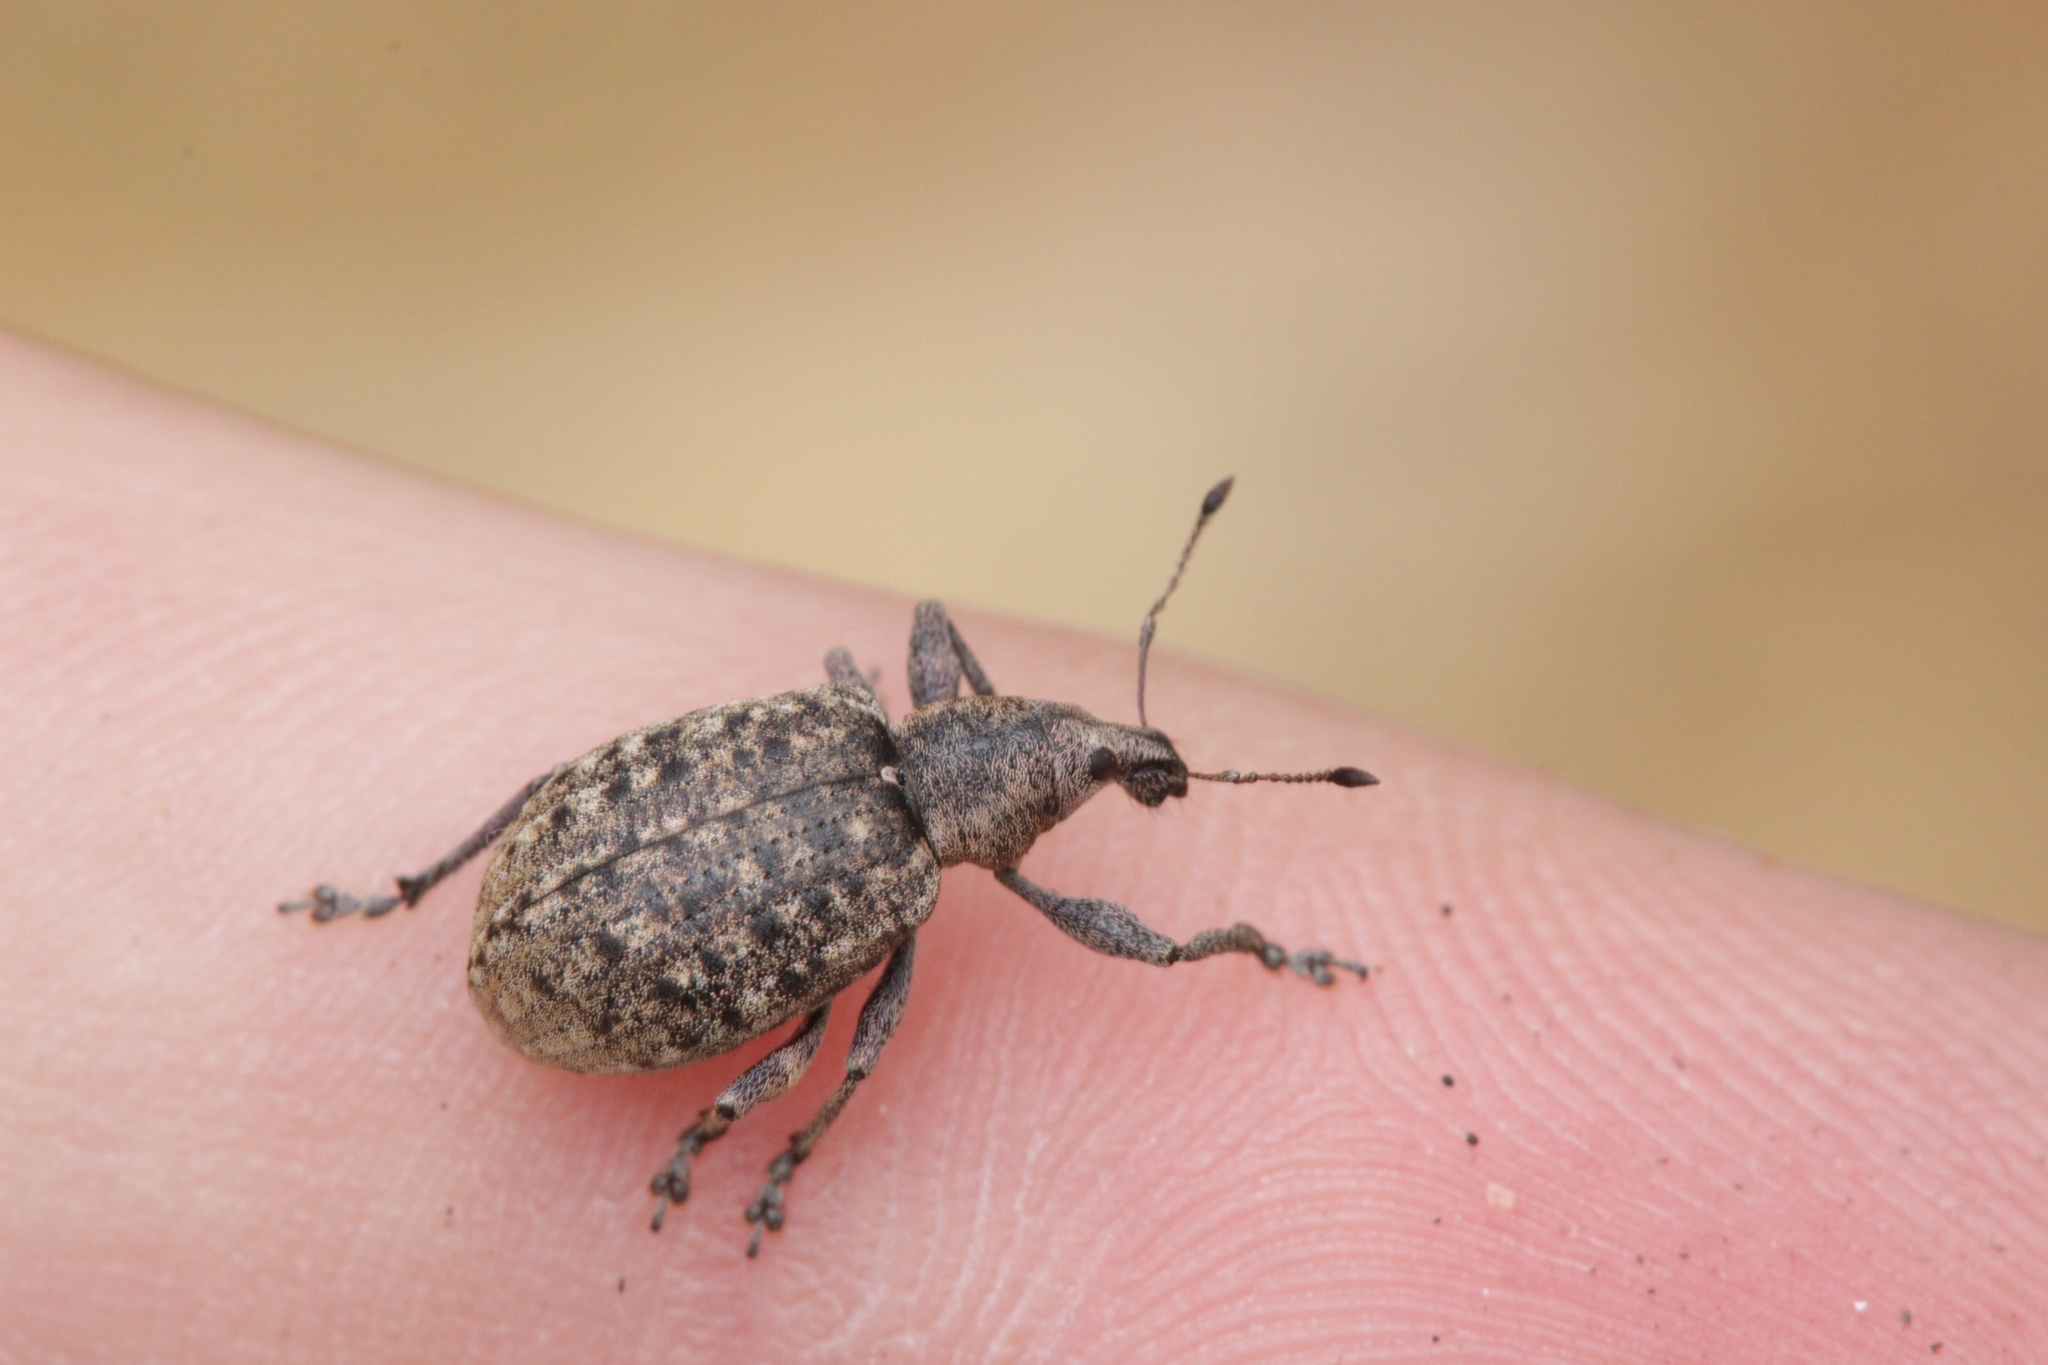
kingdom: Animalia
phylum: Arthropoda
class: Insecta
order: Coleoptera
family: Curculionidae
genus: Liophloeus
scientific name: Liophloeus tessulatus
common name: Weevil
